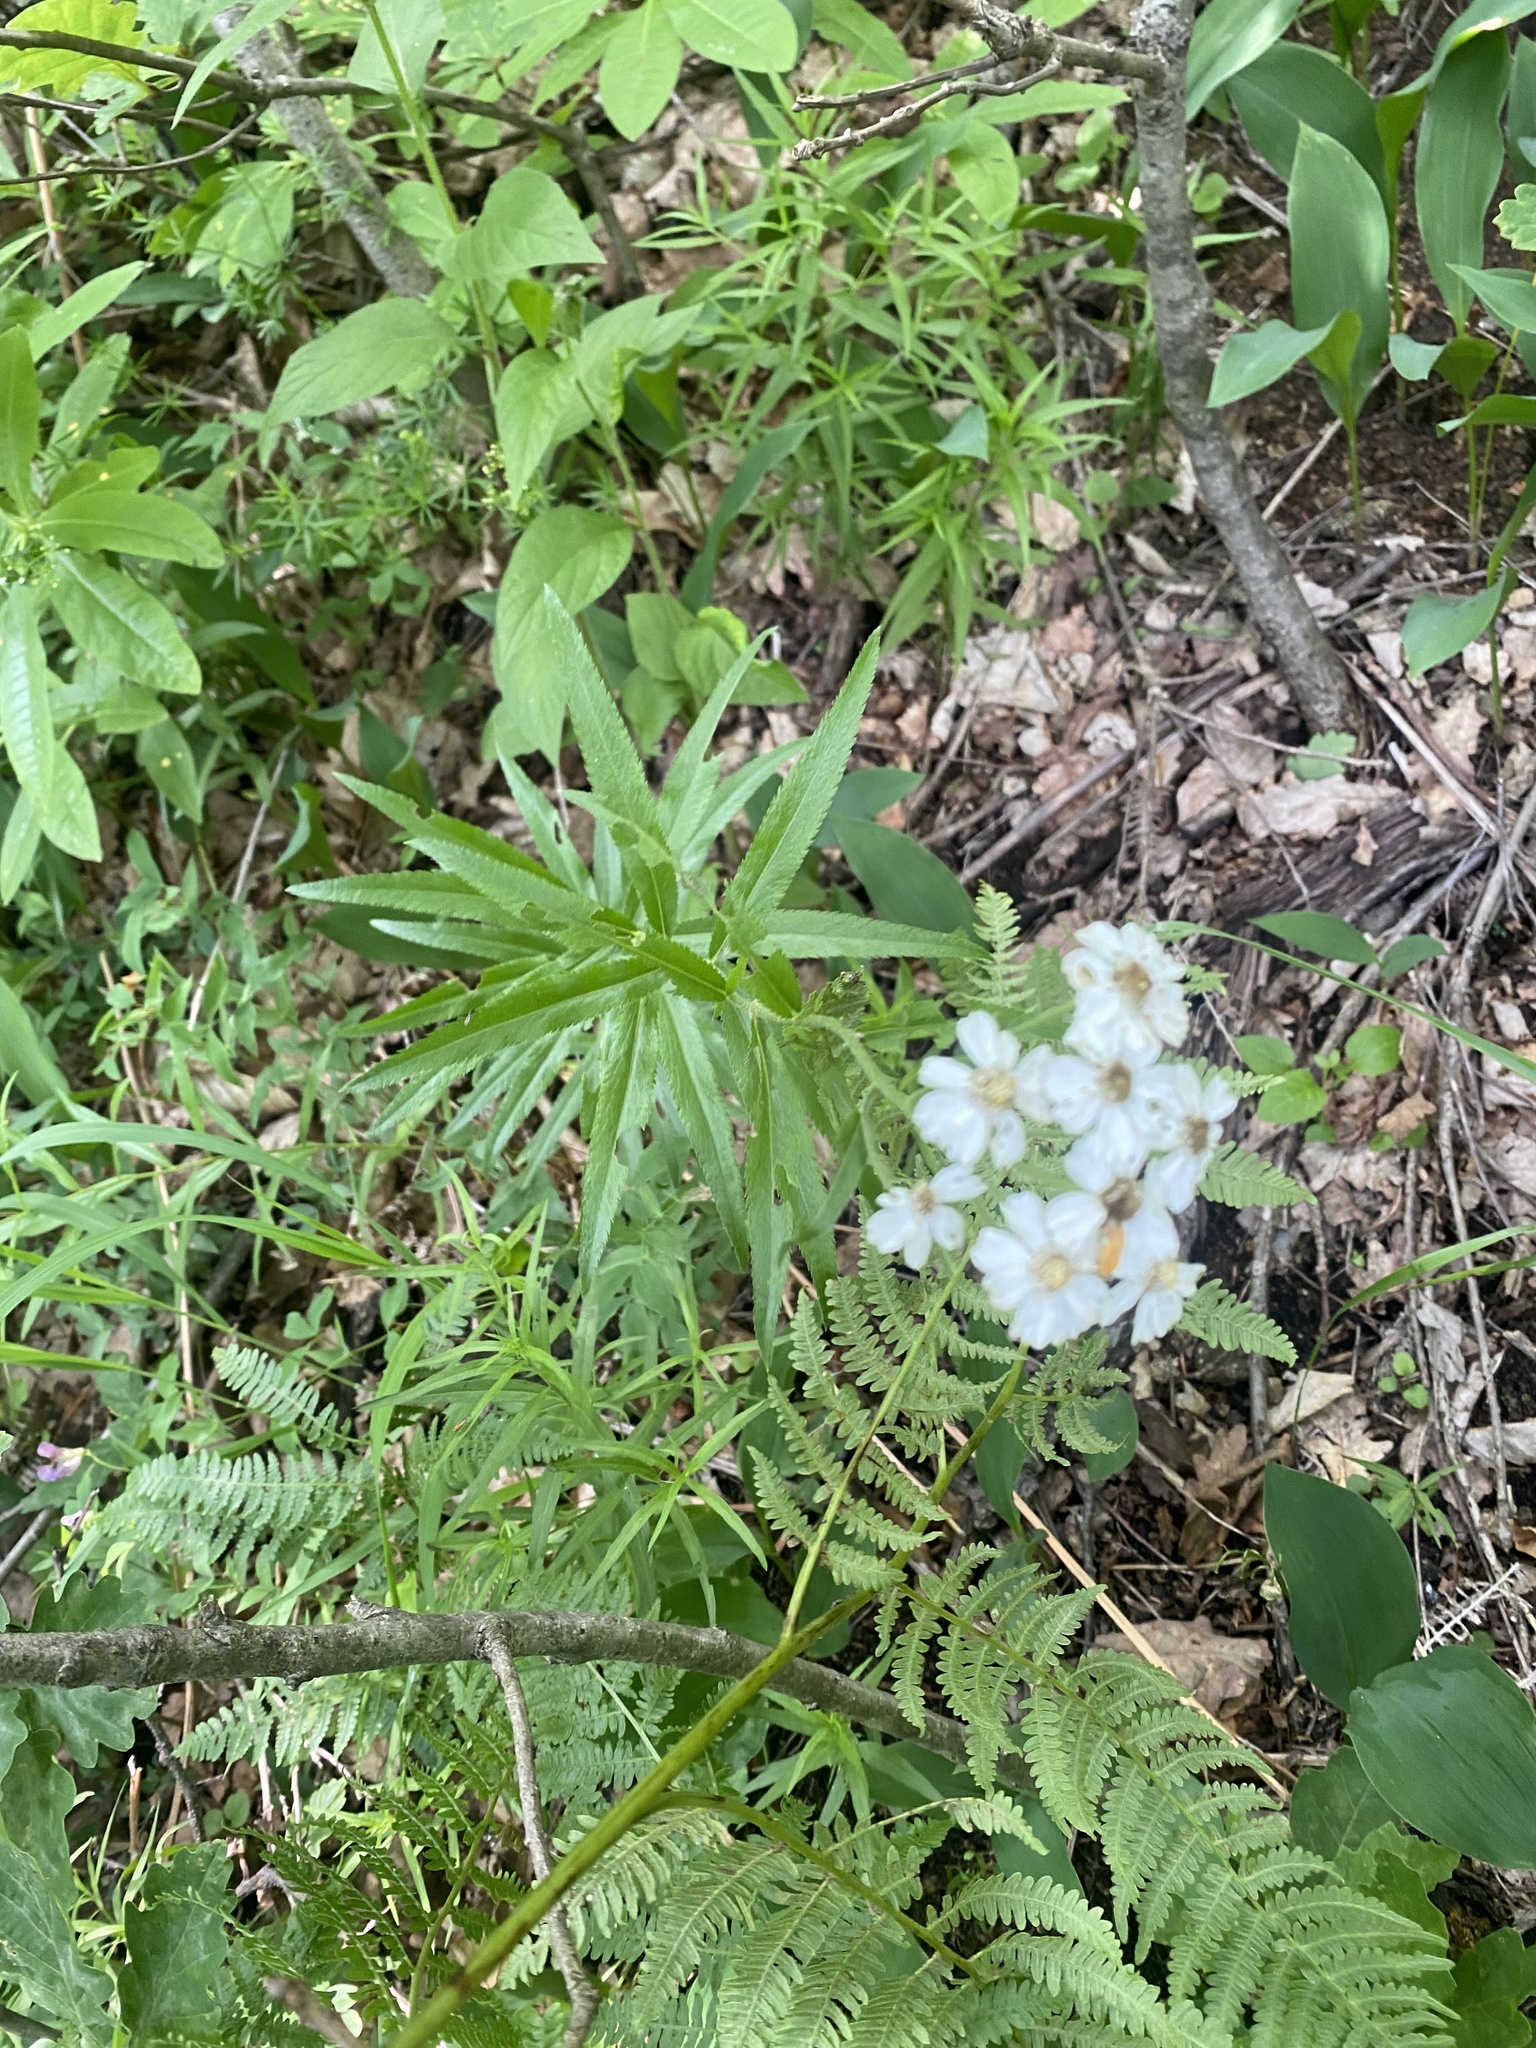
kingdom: Plantae
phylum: Tracheophyta
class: Magnoliopsida
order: Asterales
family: Asteraceae
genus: Achillea
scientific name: Achillea biserrata
